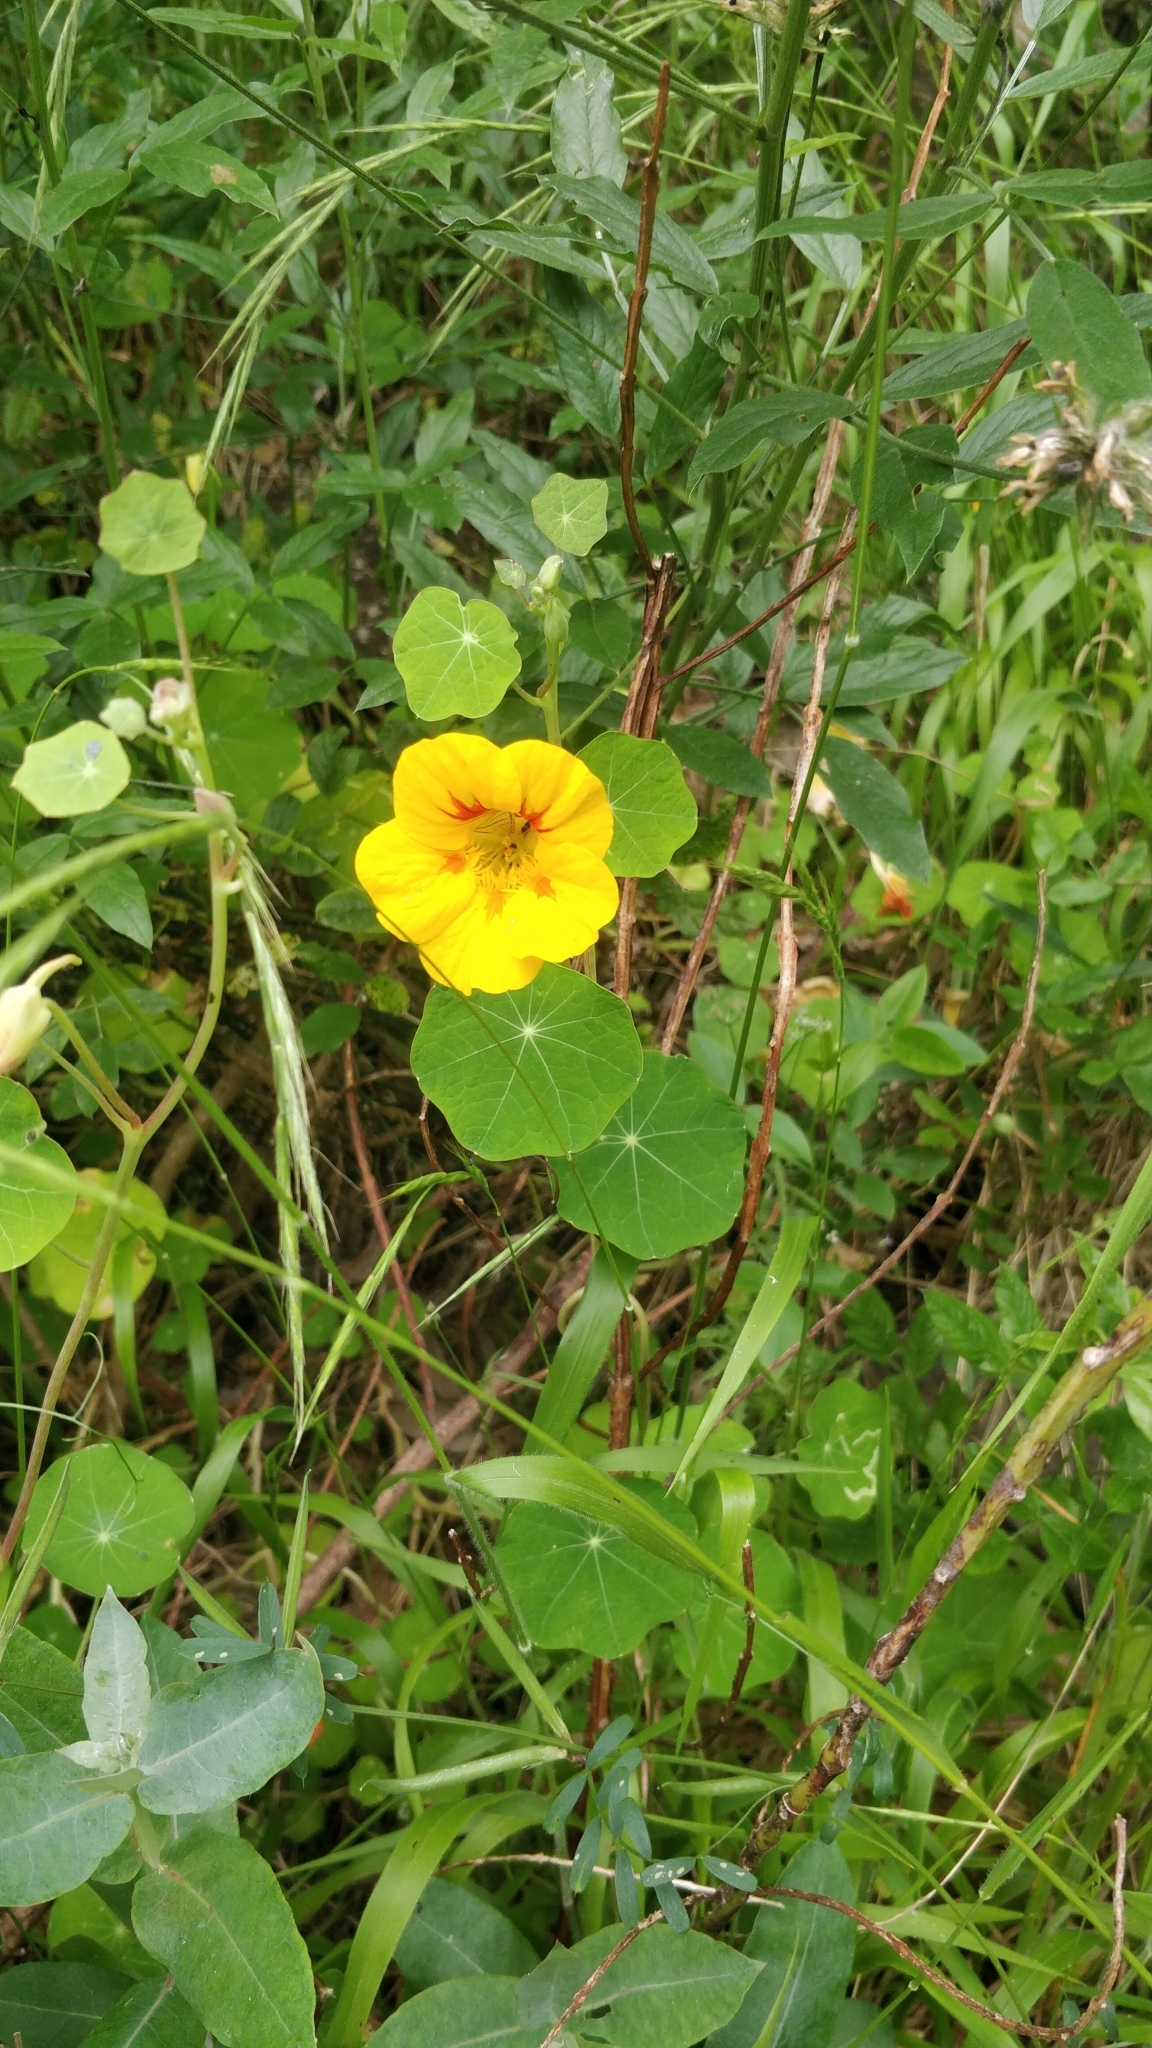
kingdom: Plantae
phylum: Tracheophyta
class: Magnoliopsida
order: Brassicales
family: Tropaeolaceae
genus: Tropaeolum
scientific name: Tropaeolum majus
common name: Nasturtium
